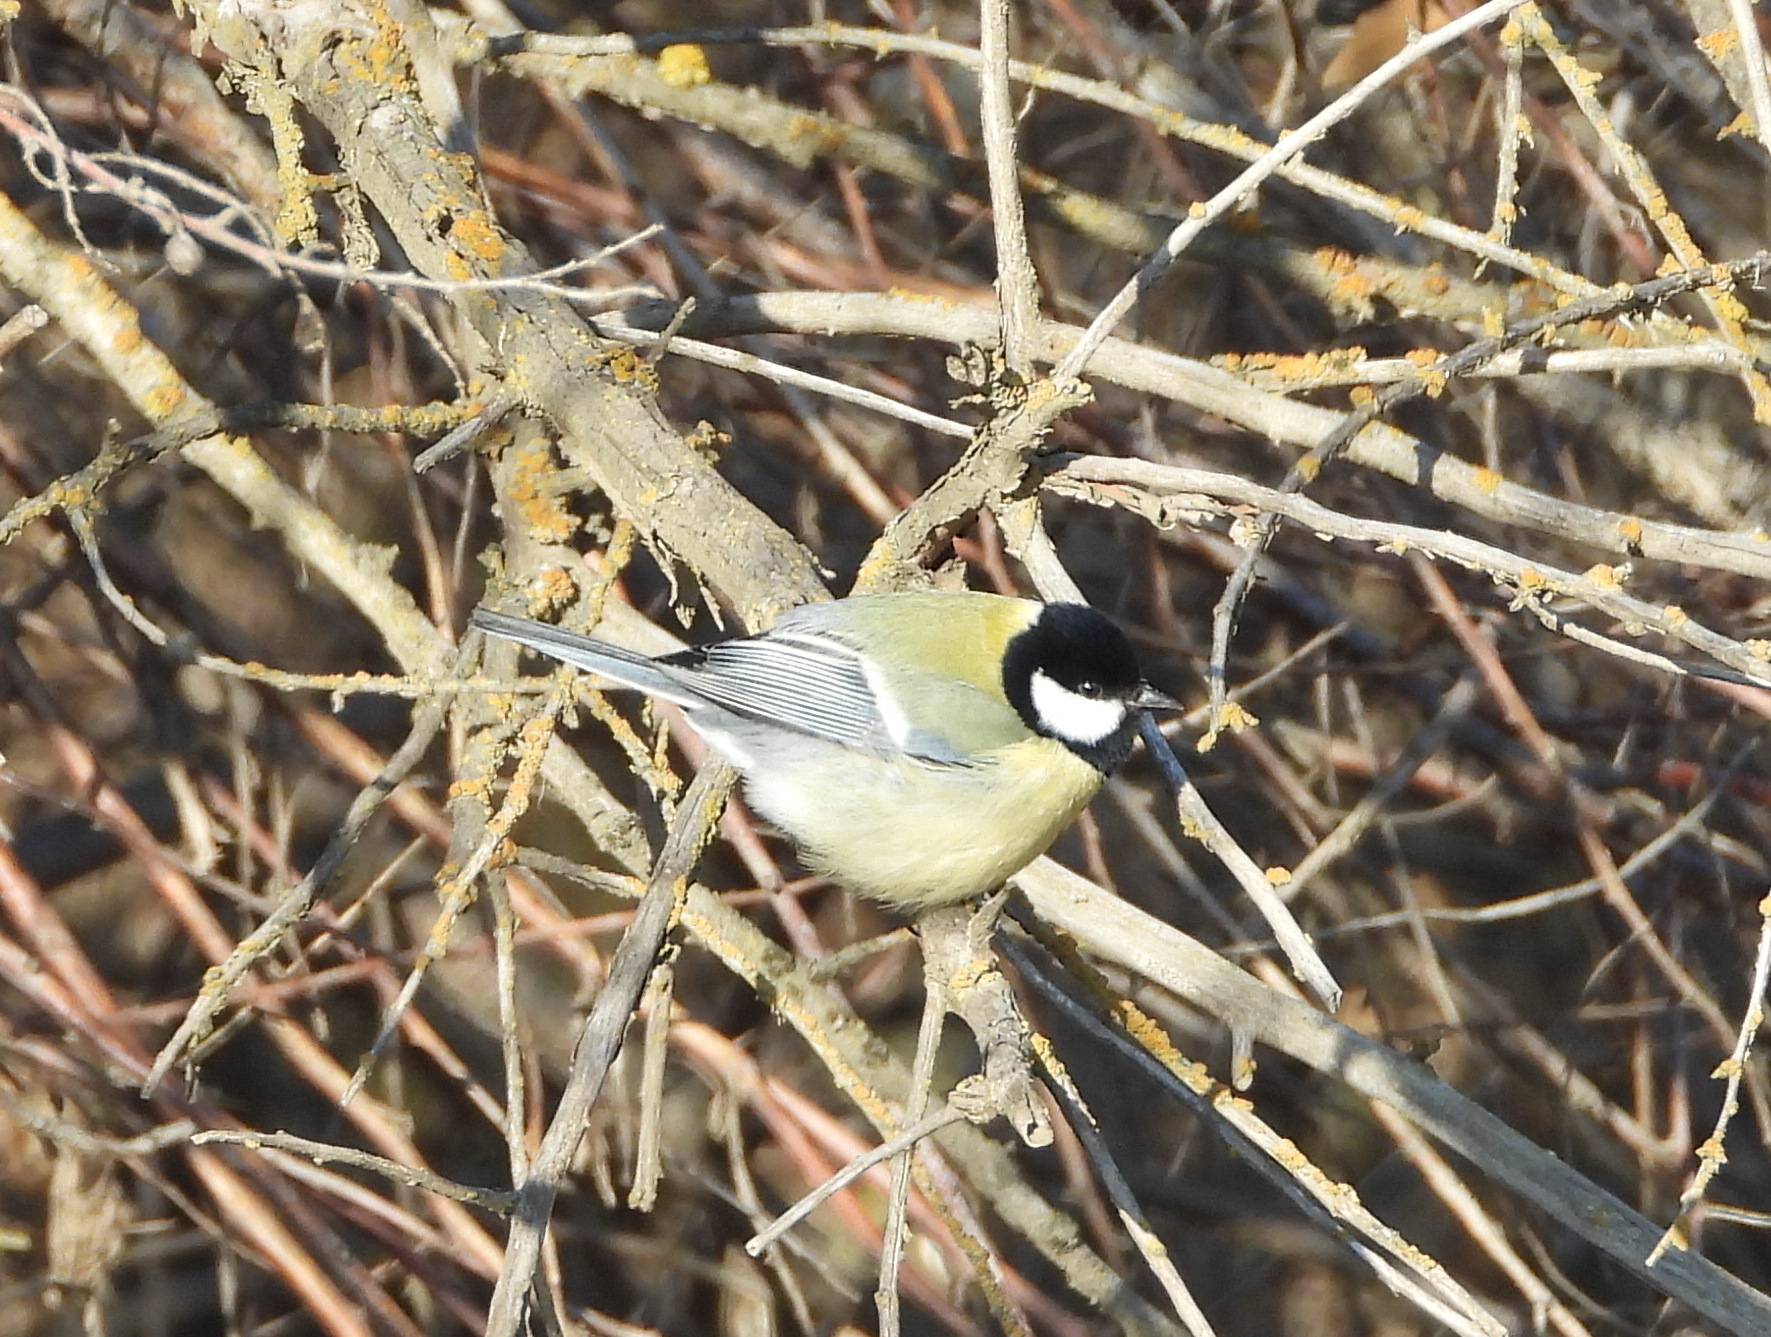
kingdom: Animalia
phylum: Chordata
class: Aves
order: Passeriformes
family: Paridae
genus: Parus
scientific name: Parus major
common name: Great tit
